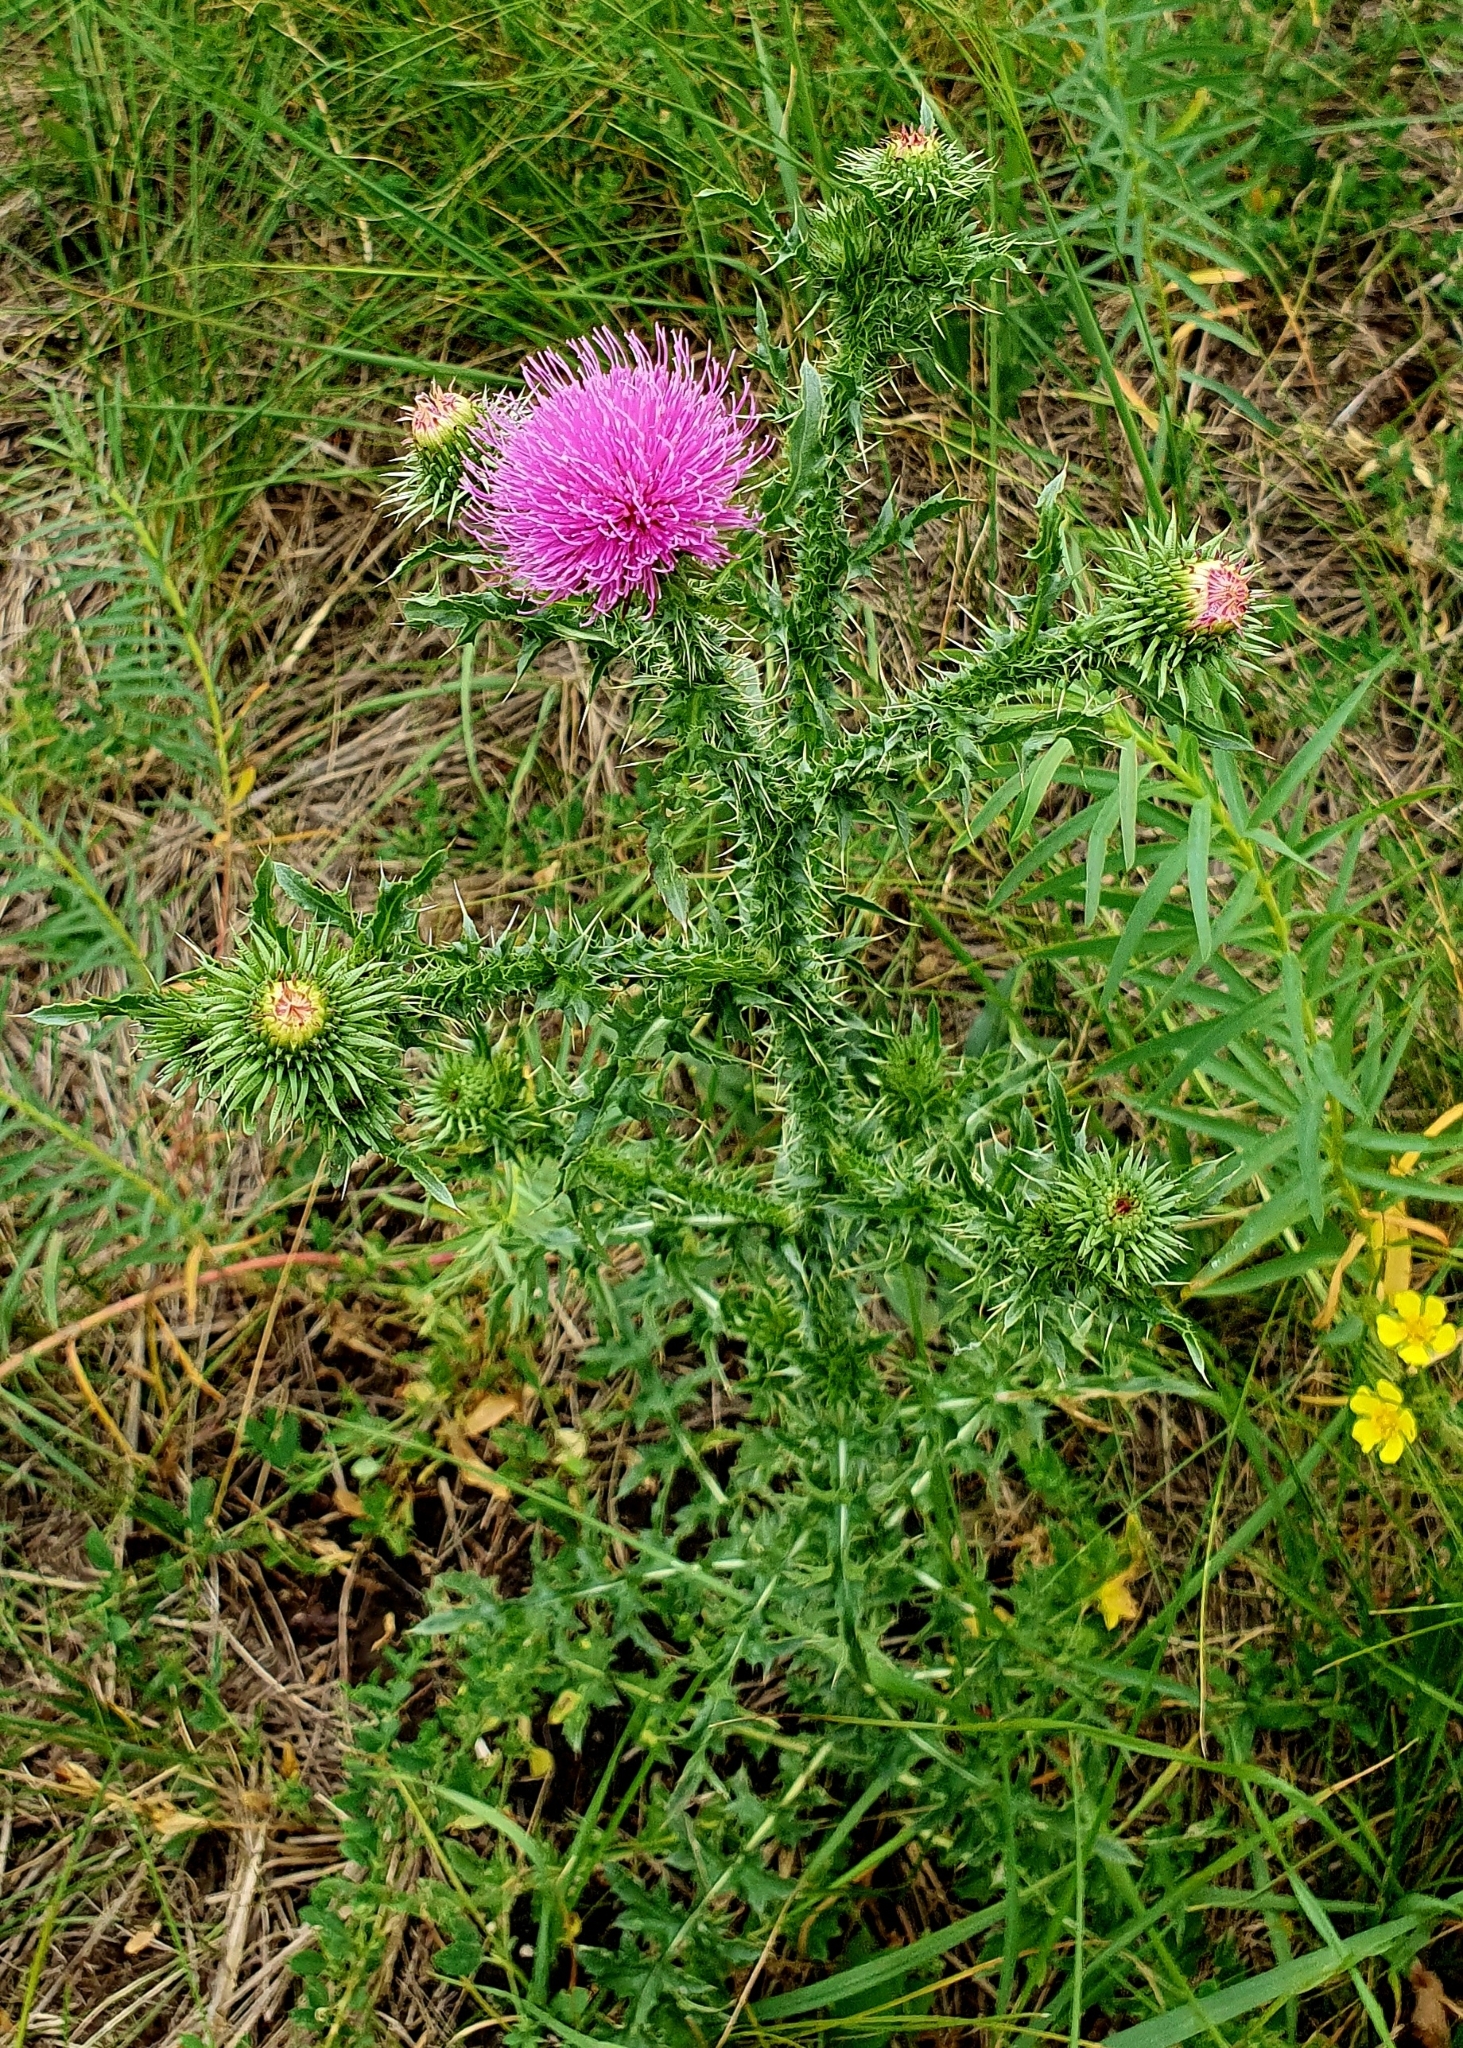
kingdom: Plantae
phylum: Tracheophyta
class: Magnoliopsida
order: Asterales
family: Asteraceae
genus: Carduus
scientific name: Carduus acanthoides
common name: Plumeless thistle
